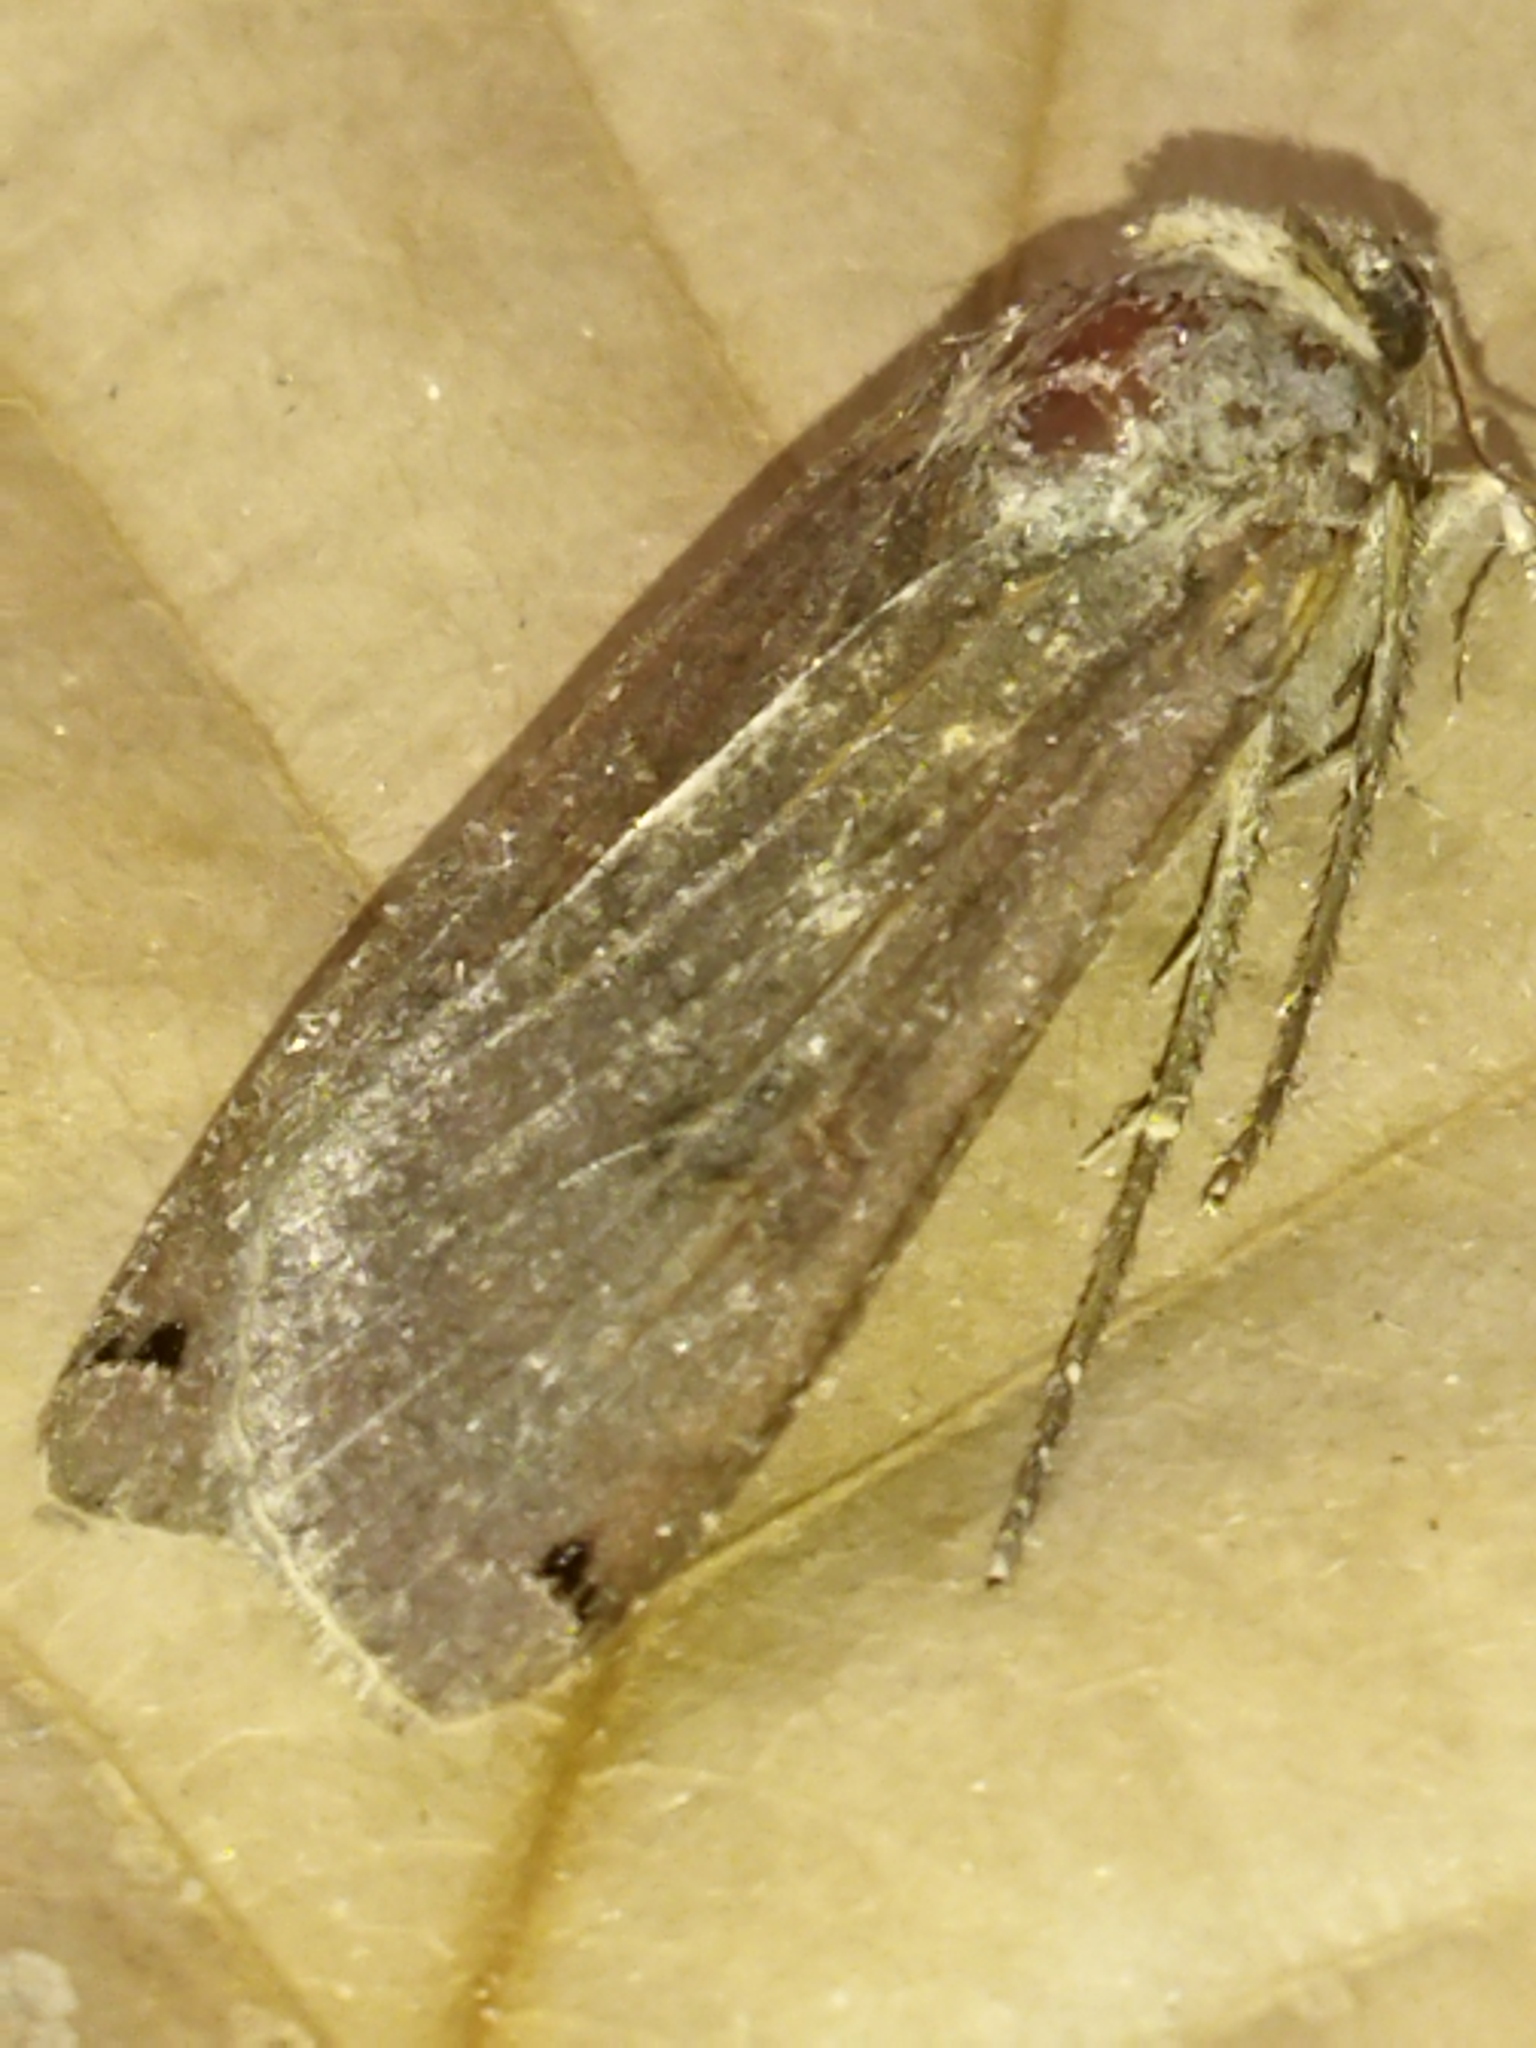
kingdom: Animalia
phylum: Arthropoda
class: Insecta
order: Lepidoptera
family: Noctuidae
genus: Noctua
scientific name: Noctua pronuba
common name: Large yellow underwing
